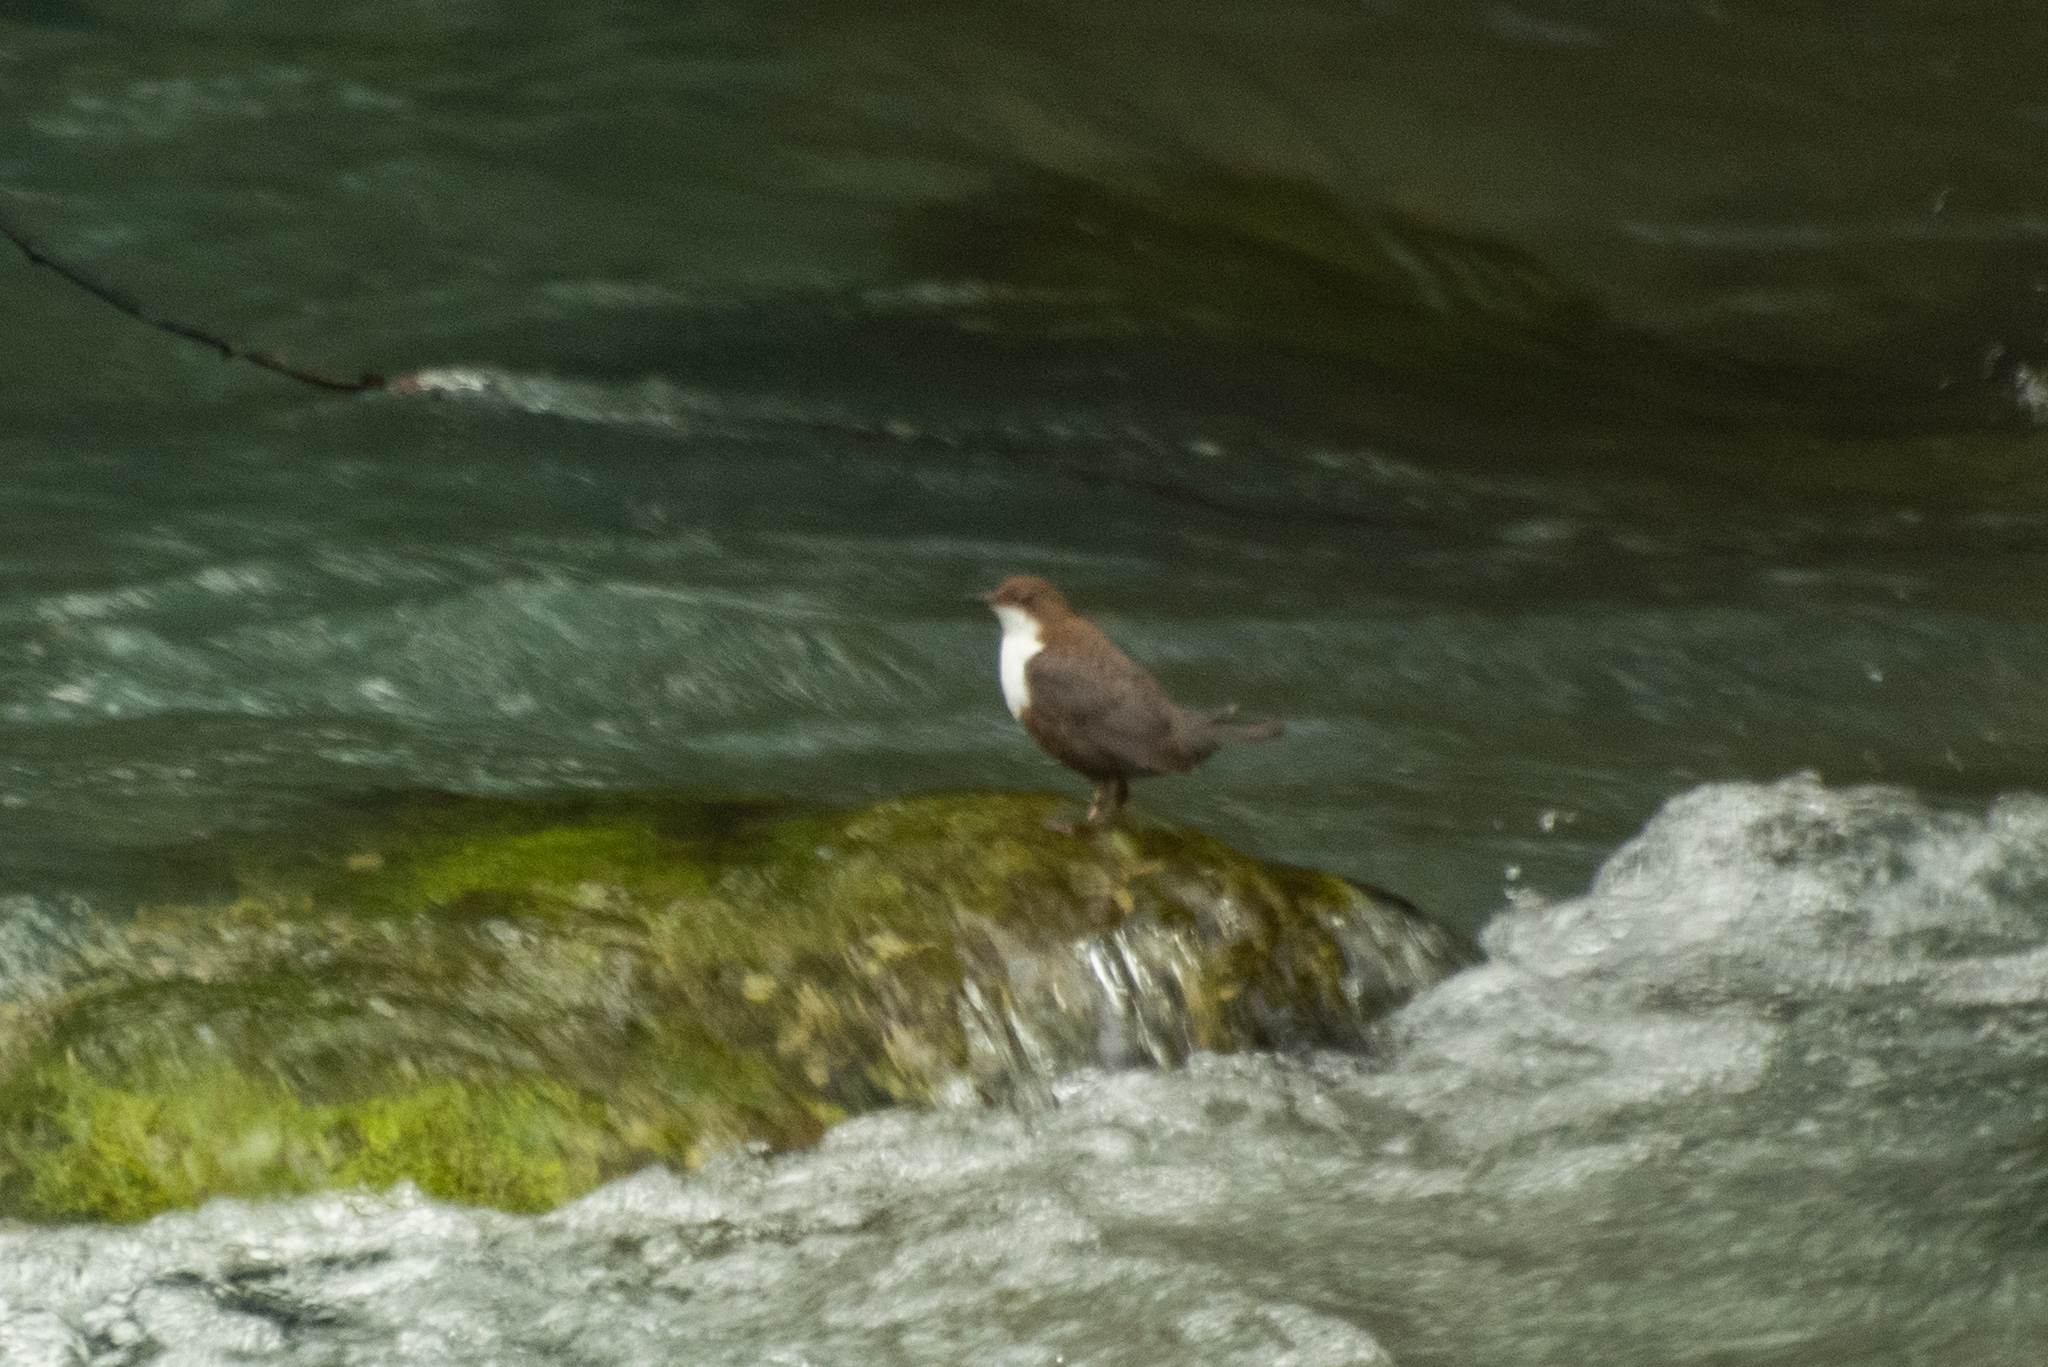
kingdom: Animalia
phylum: Chordata
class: Aves
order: Passeriformes
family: Cinclidae
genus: Cinclus
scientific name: Cinclus cinclus
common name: White-throated dipper
